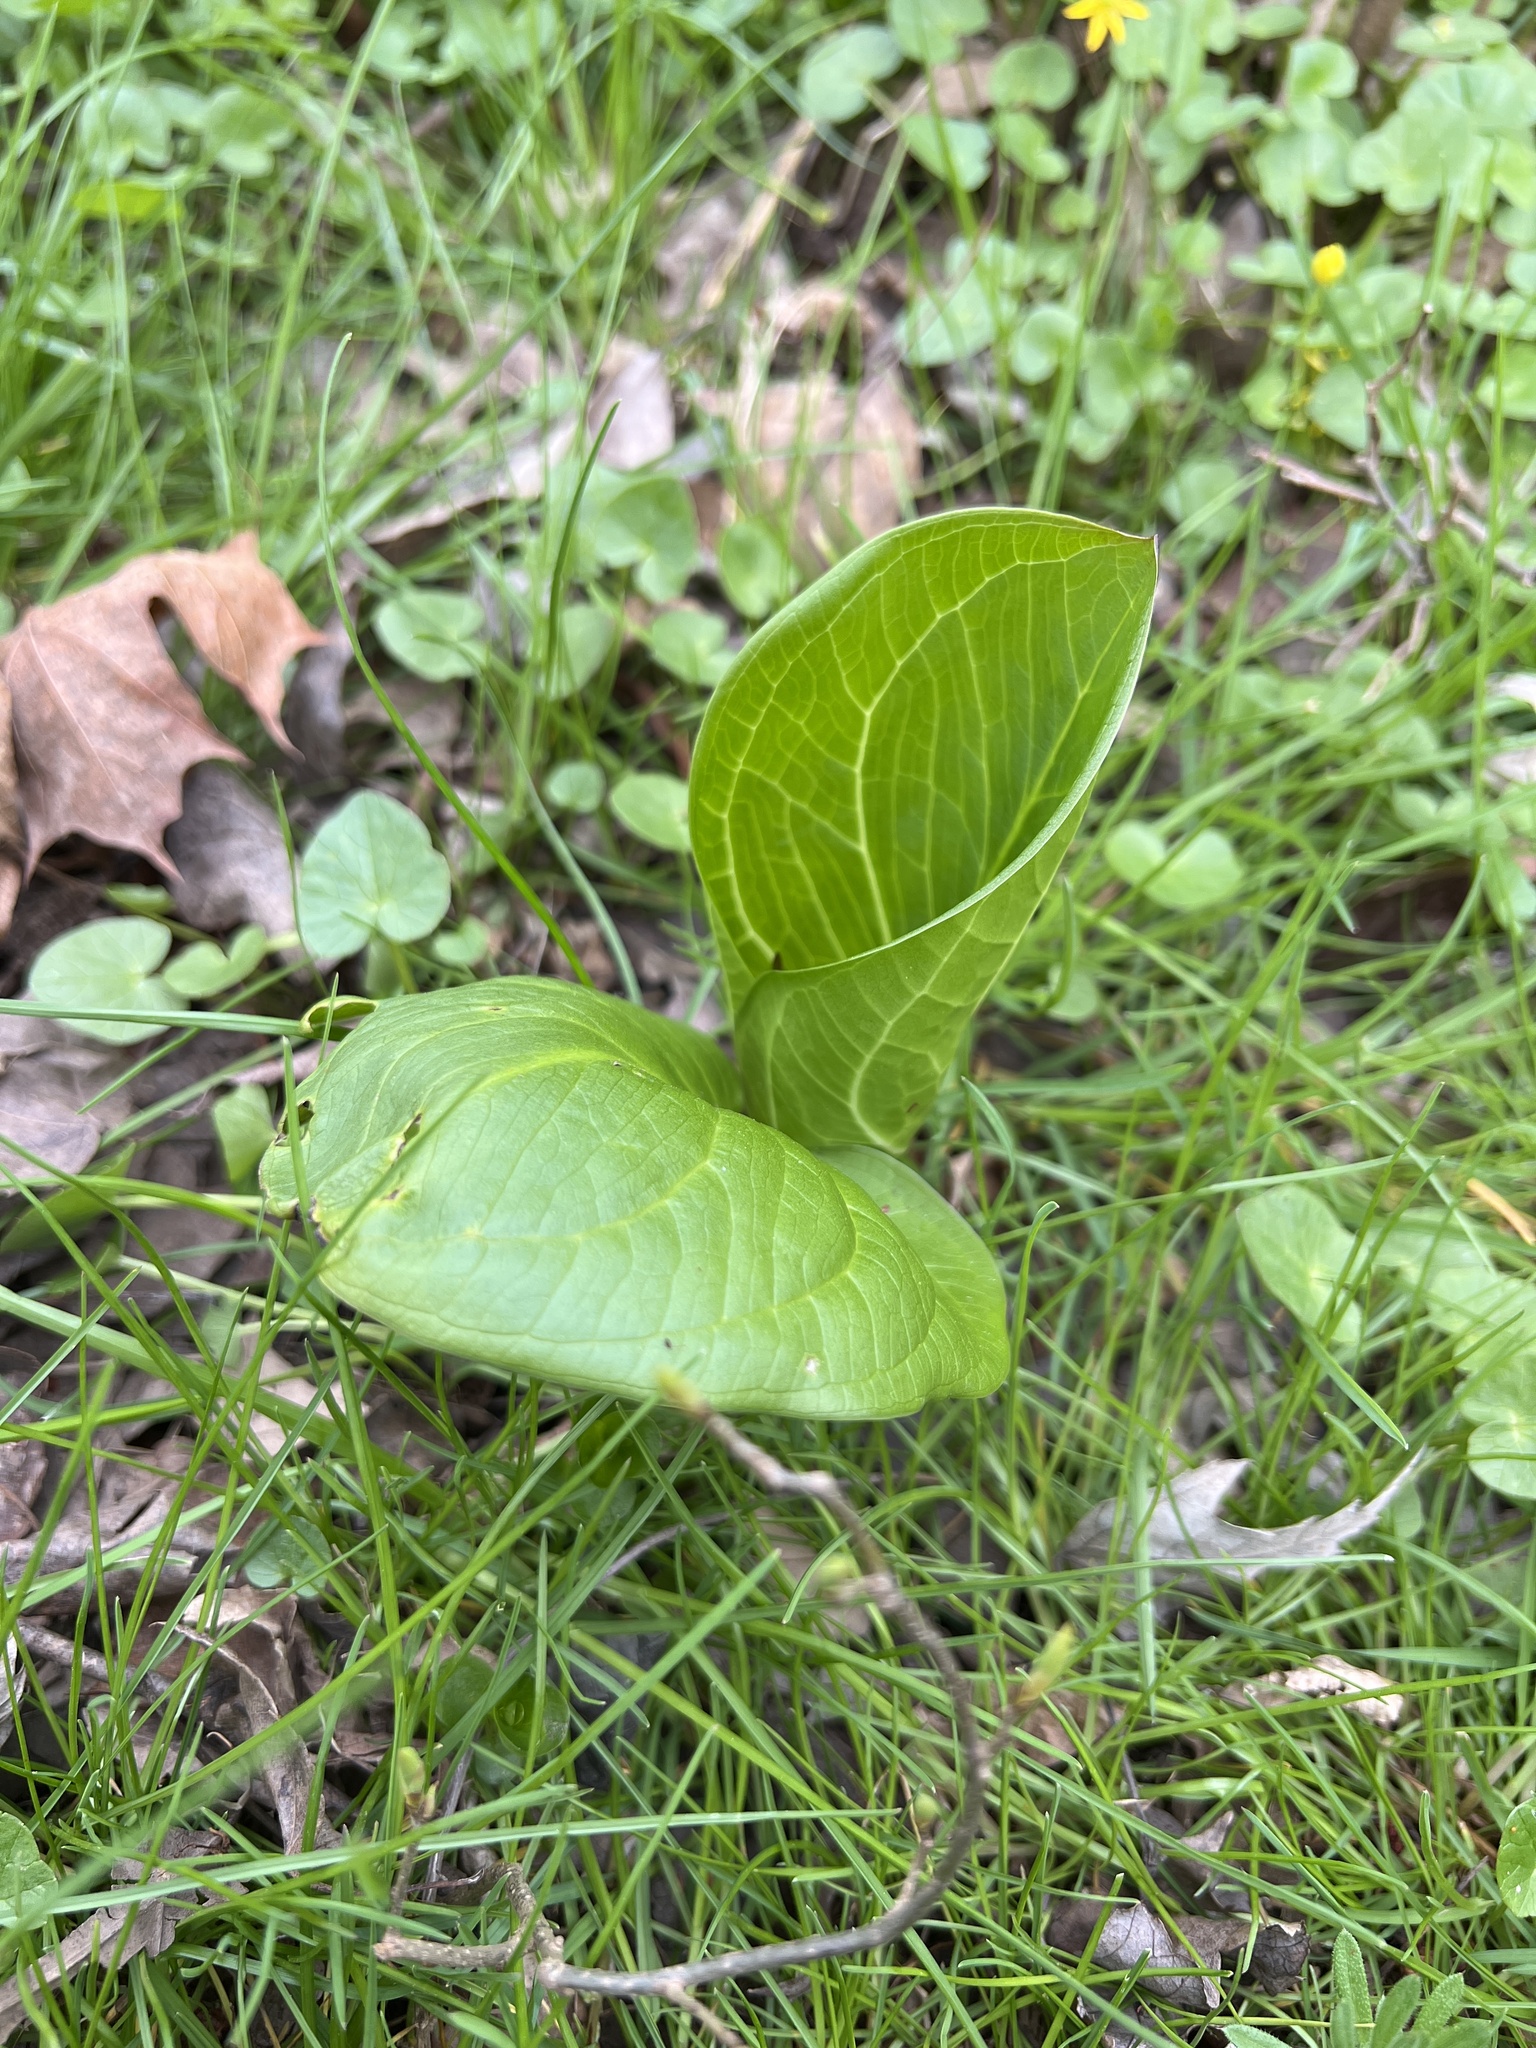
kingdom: Plantae
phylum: Tracheophyta
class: Liliopsida
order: Alismatales
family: Araceae
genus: Symplocarpus
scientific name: Symplocarpus foetidus
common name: Eastern skunk cabbage
